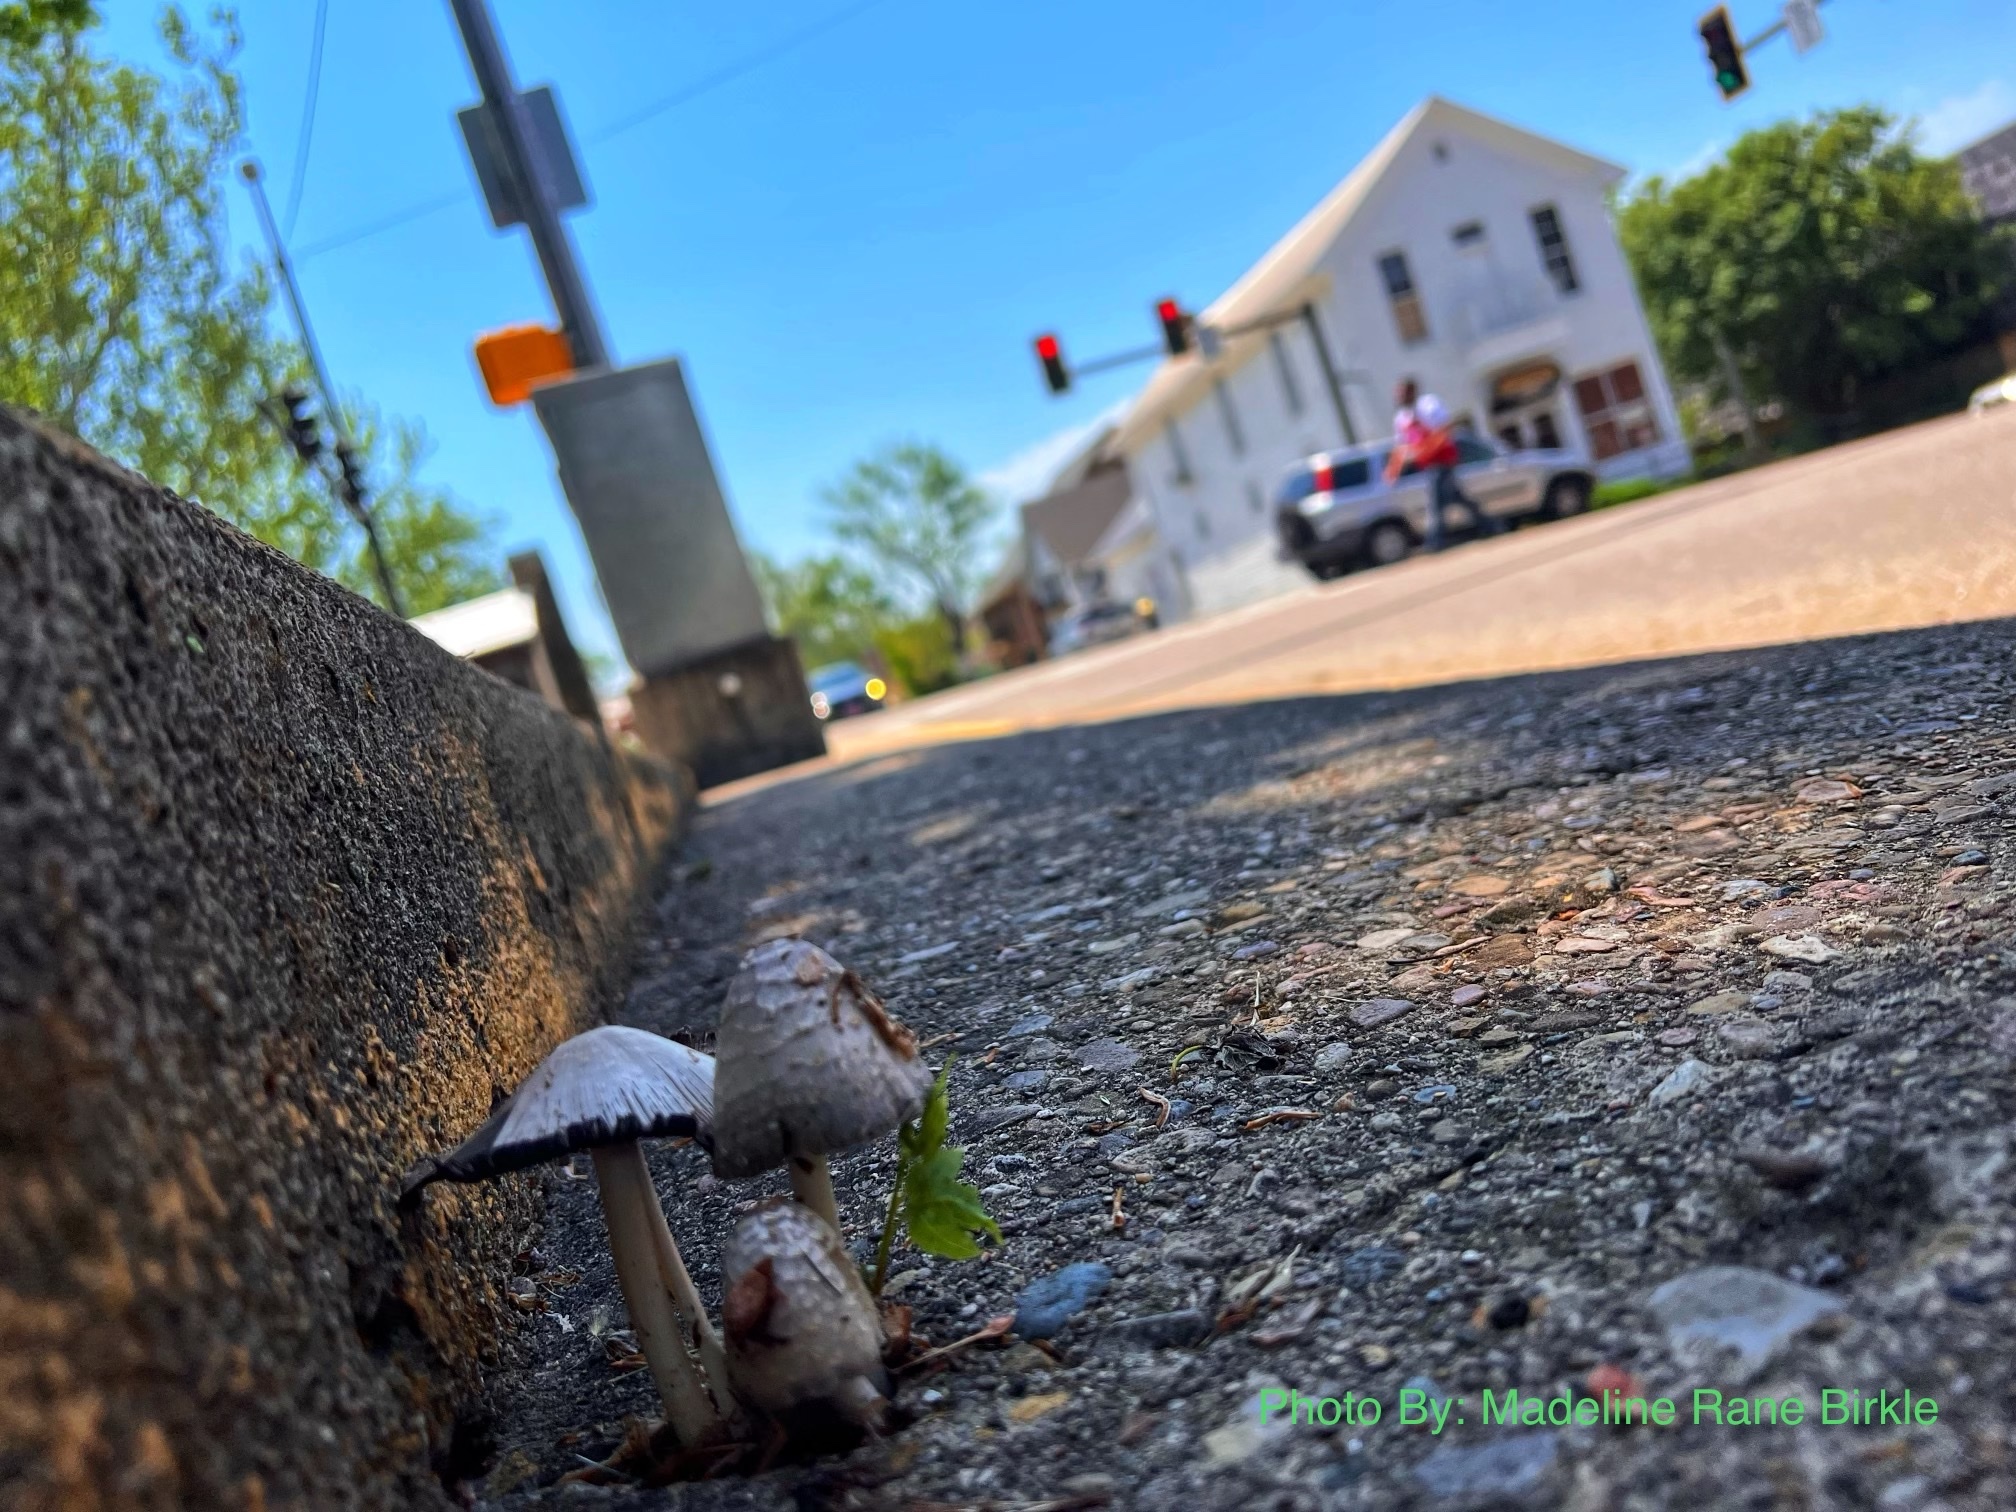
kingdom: Fungi
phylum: Basidiomycota
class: Agaricomycetes
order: Agaricales
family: Psathyrellaceae
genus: Coprinopsis
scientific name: Coprinopsis variegata
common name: Scaly ink cap
